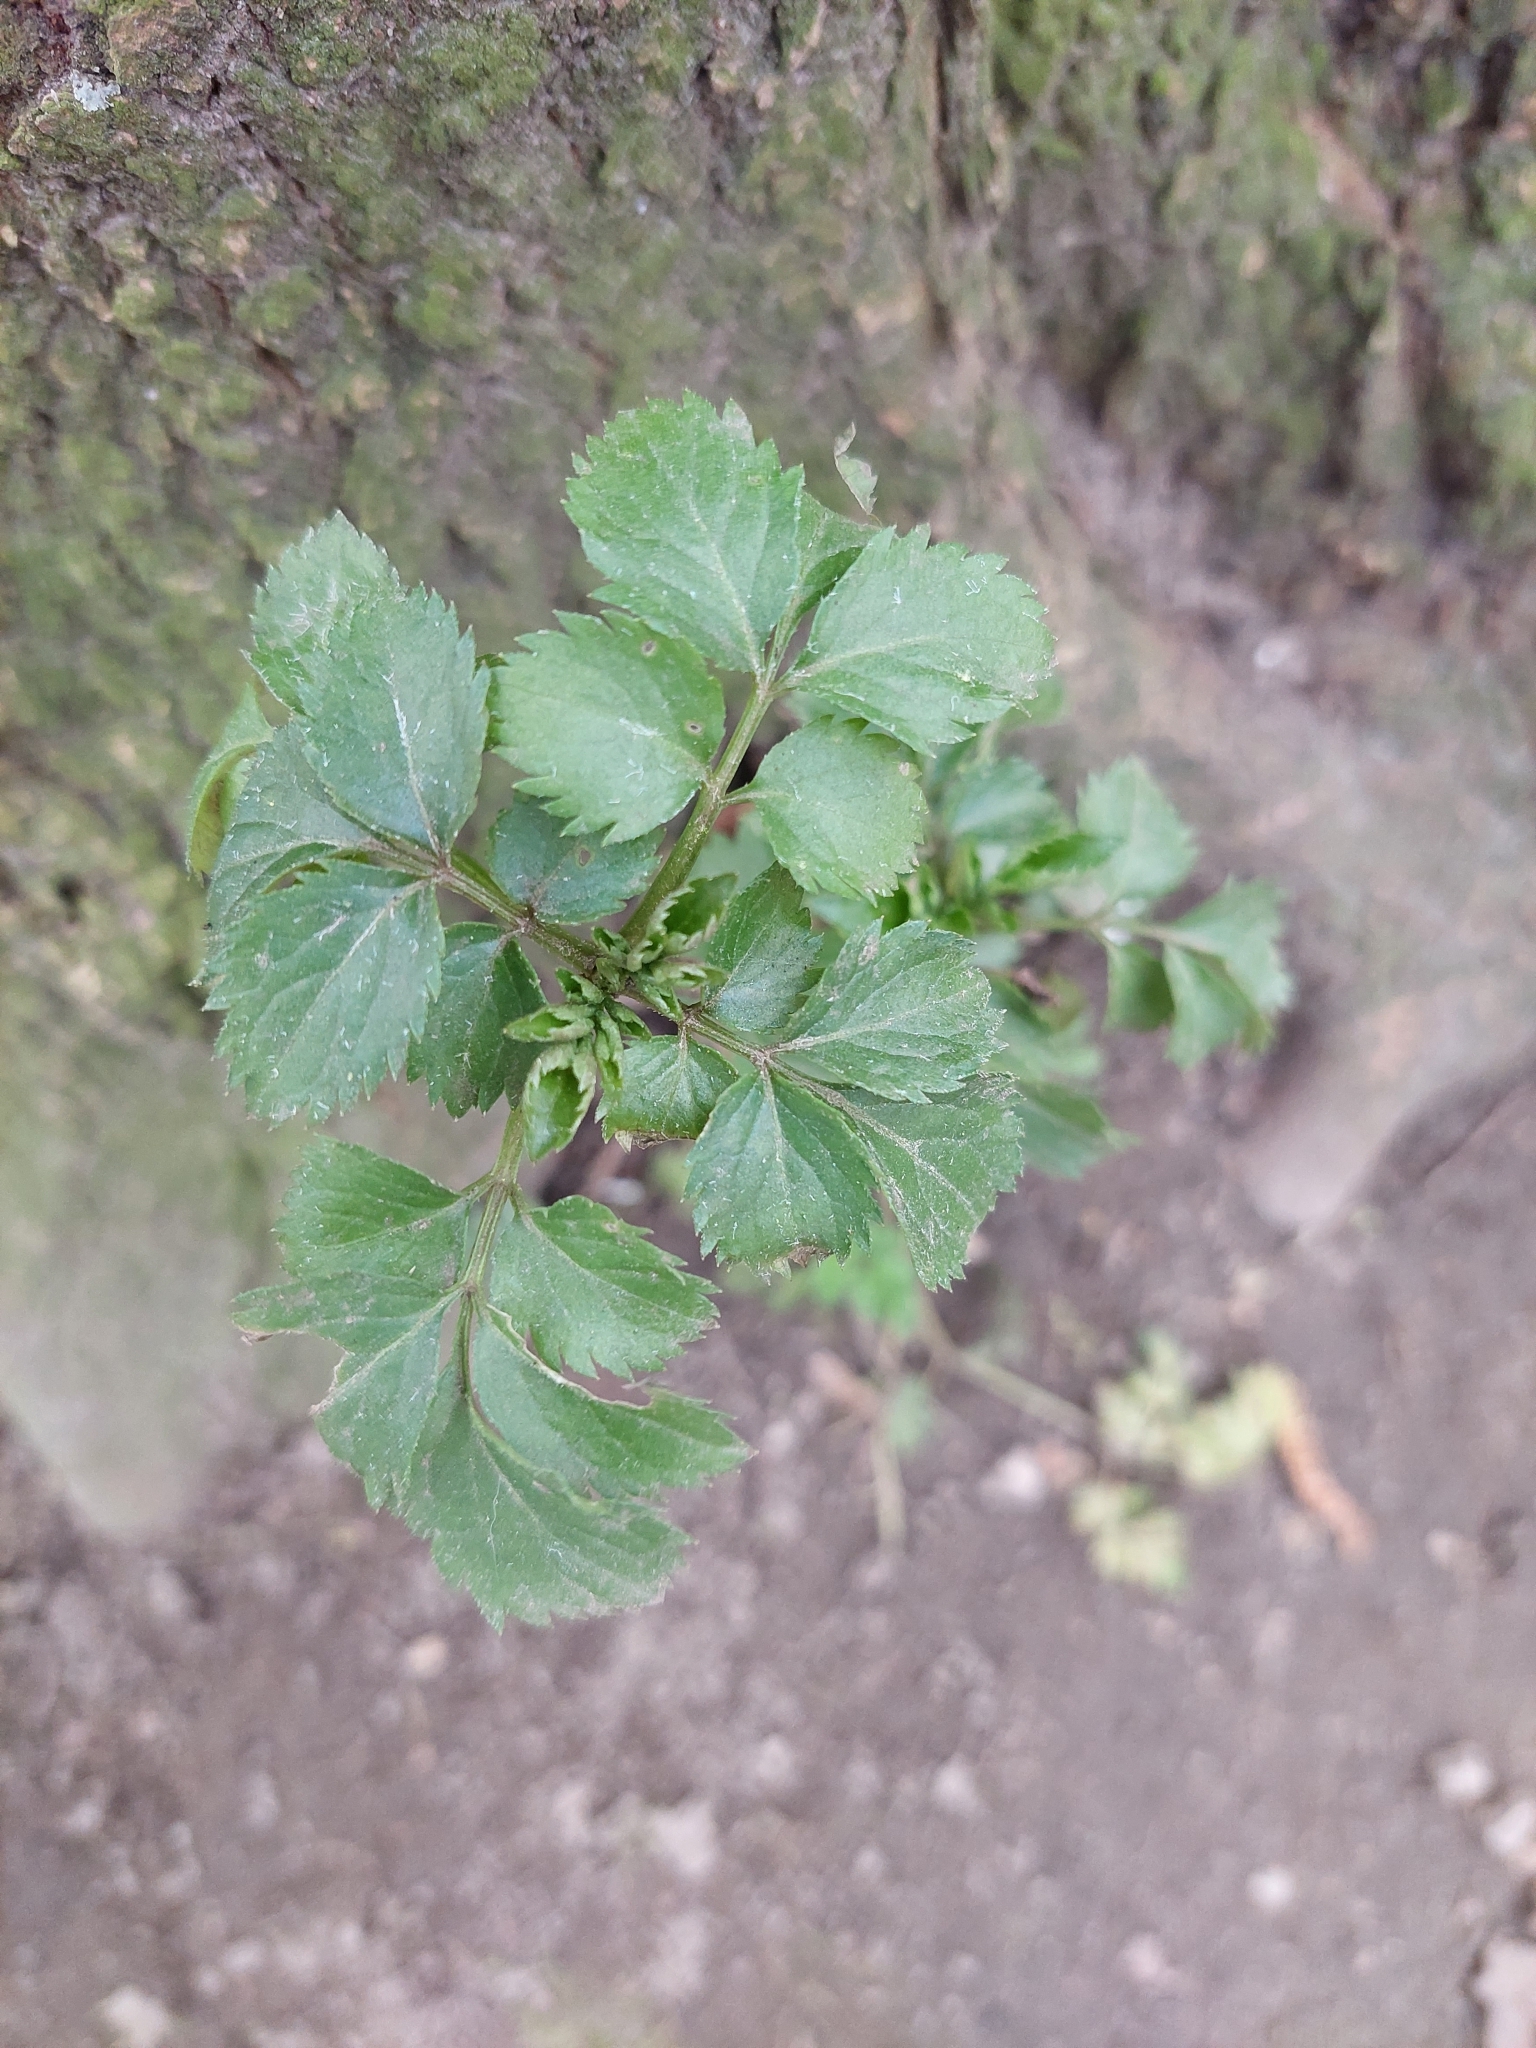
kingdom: Plantae
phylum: Tracheophyta
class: Magnoliopsida
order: Dipsacales
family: Viburnaceae
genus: Sambucus
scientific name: Sambucus nigra
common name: Elder
